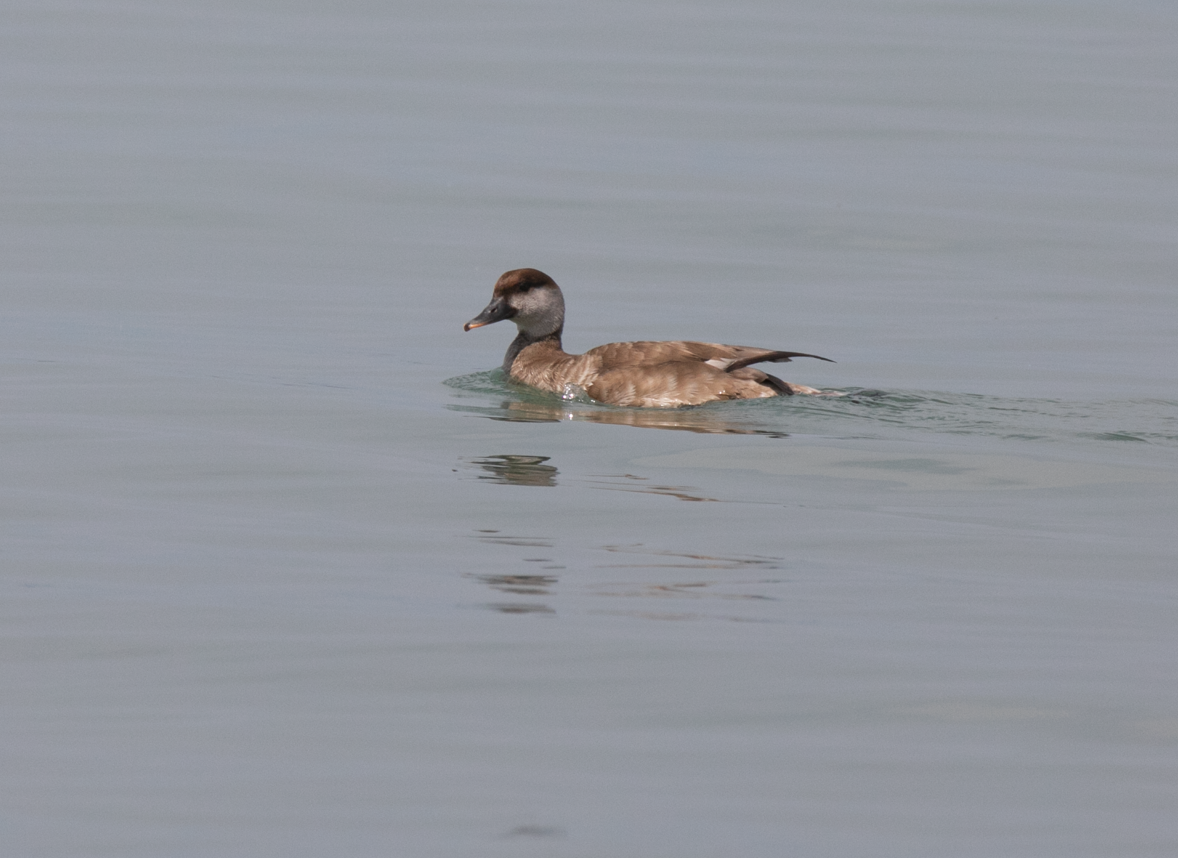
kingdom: Animalia
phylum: Chordata
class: Aves
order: Anseriformes
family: Anatidae
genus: Netta
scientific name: Netta rufina
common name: Red-crested pochard
